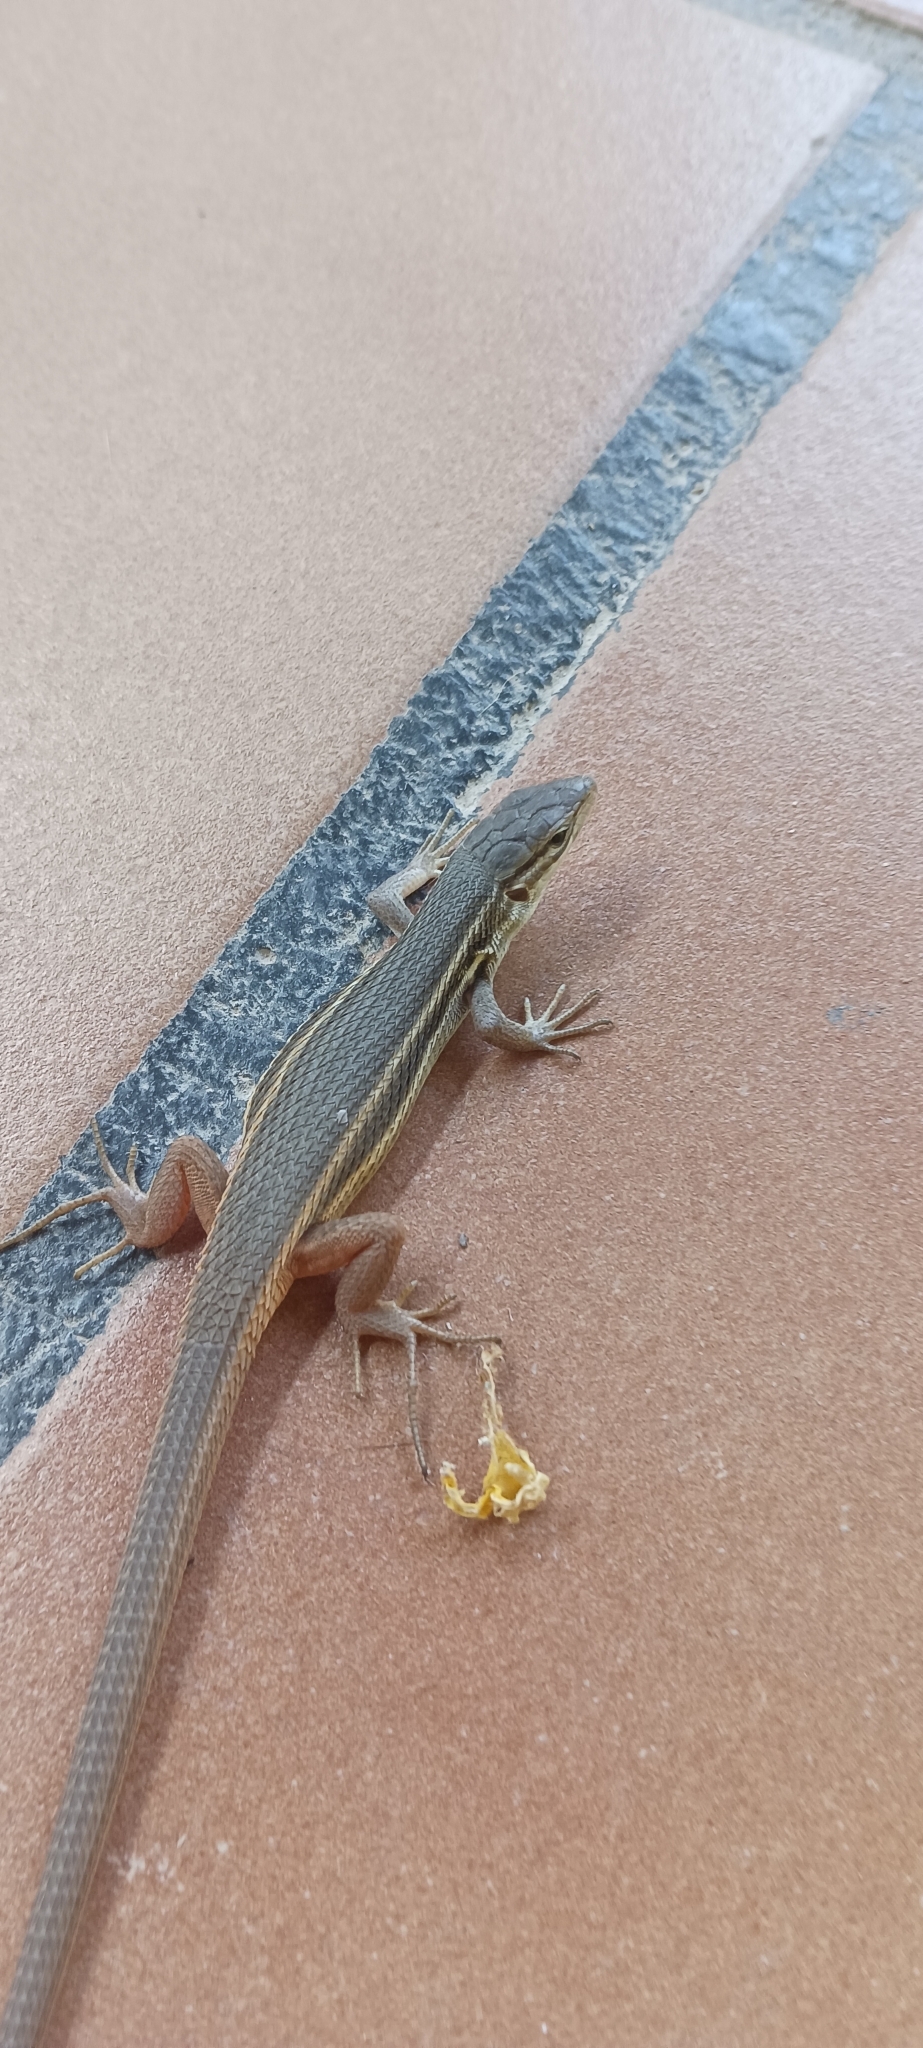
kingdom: Animalia
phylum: Chordata
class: Squamata
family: Lacertidae
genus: Psammodromus
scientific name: Psammodromus algirus
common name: Algerian psammodromus
